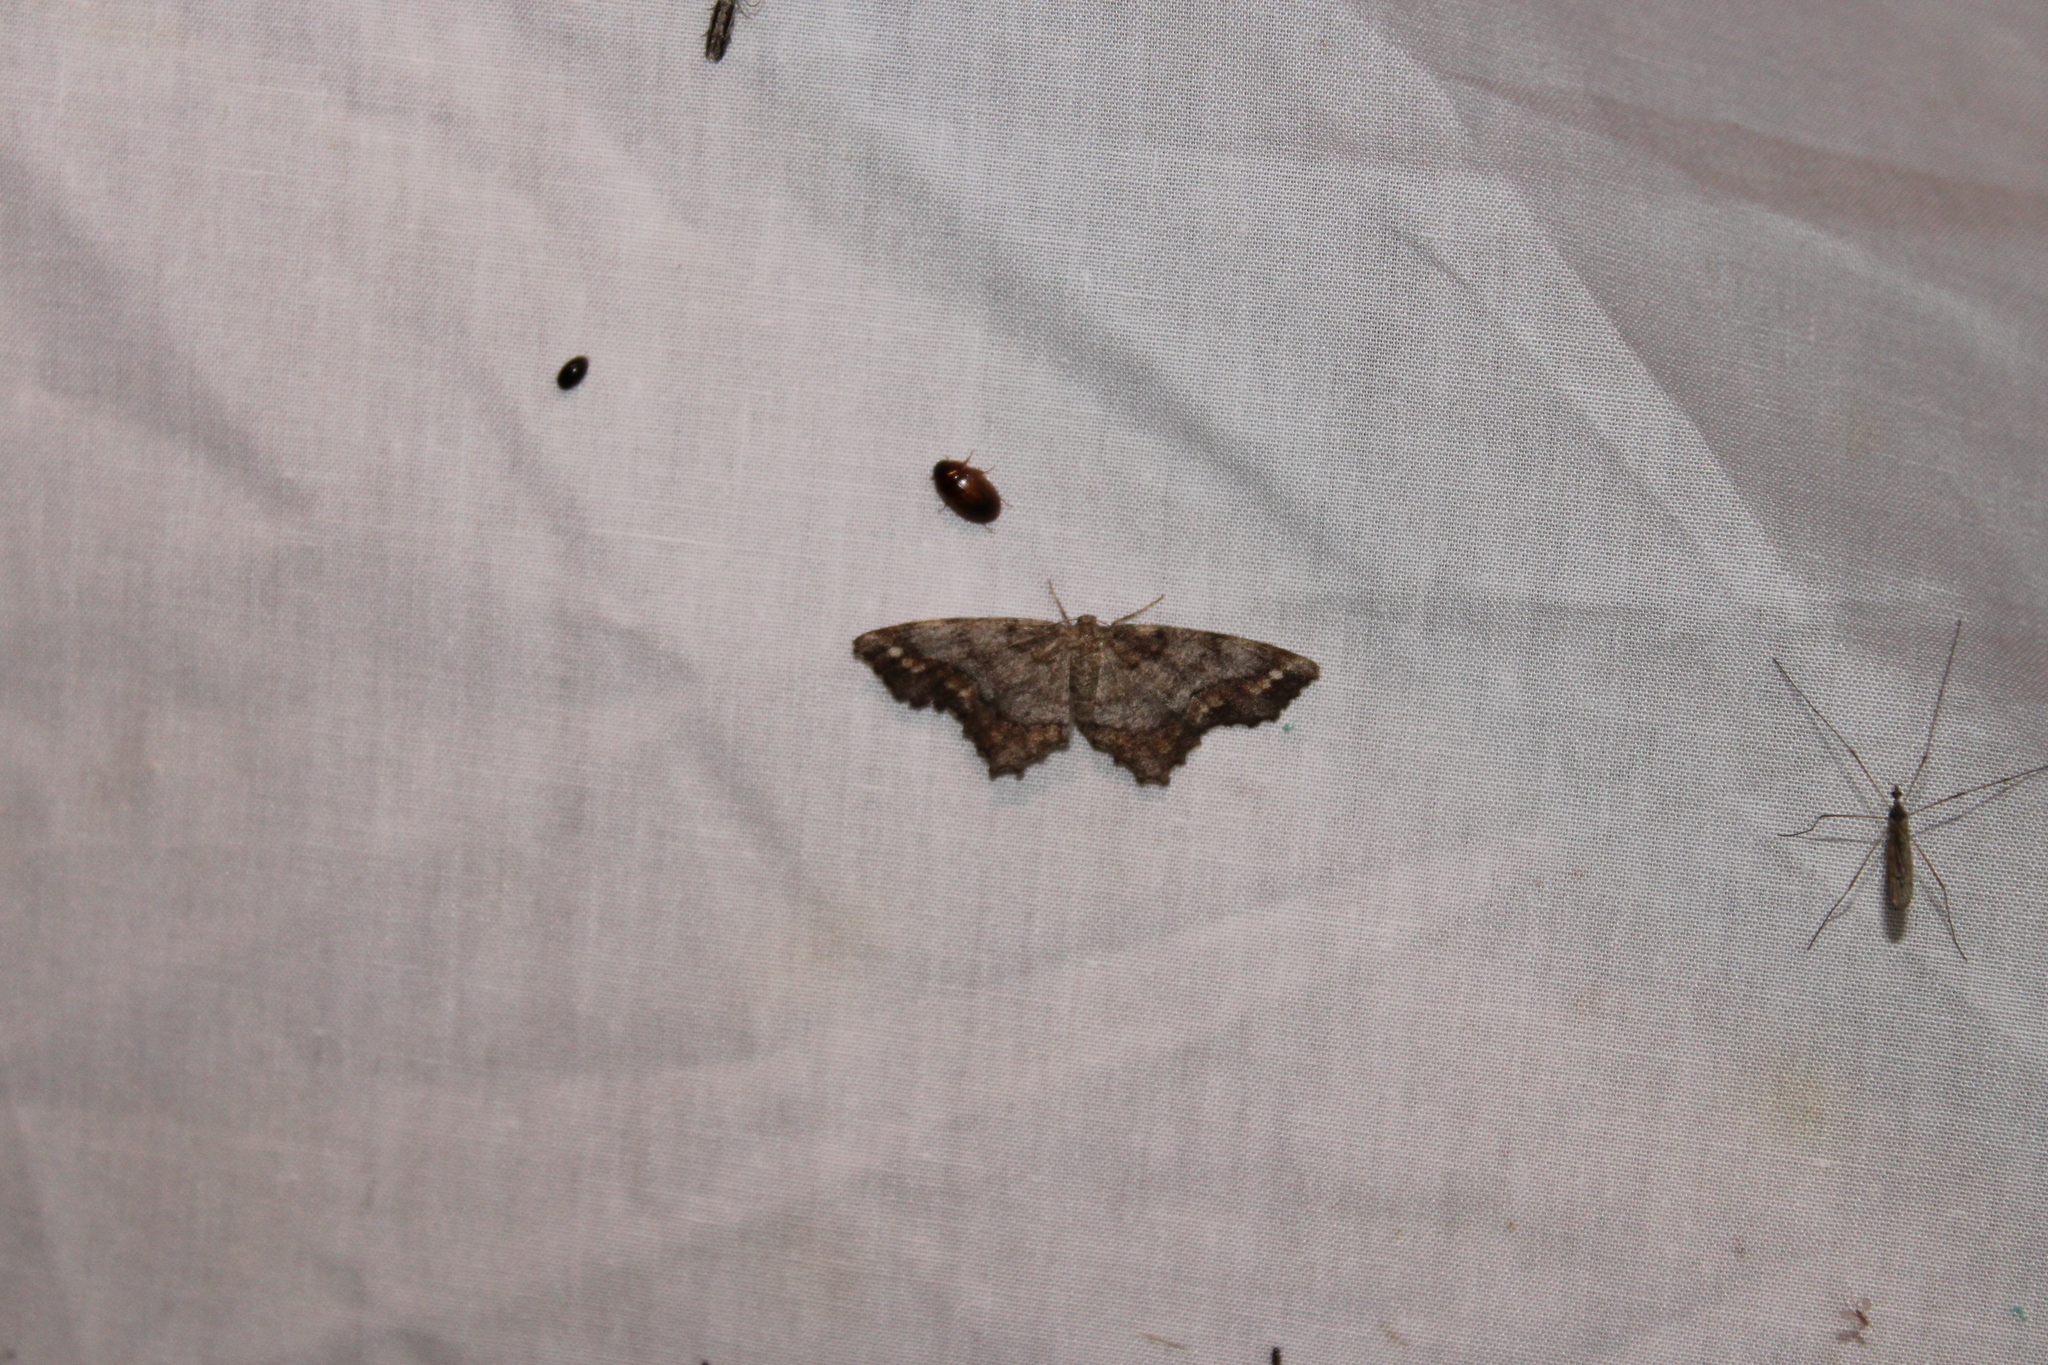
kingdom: Animalia
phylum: Arthropoda
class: Insecta
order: Lepidoptera
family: Geometridae
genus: Hypagyrtis
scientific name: Hypagyrtis unipunctata
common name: One-spotted variant
